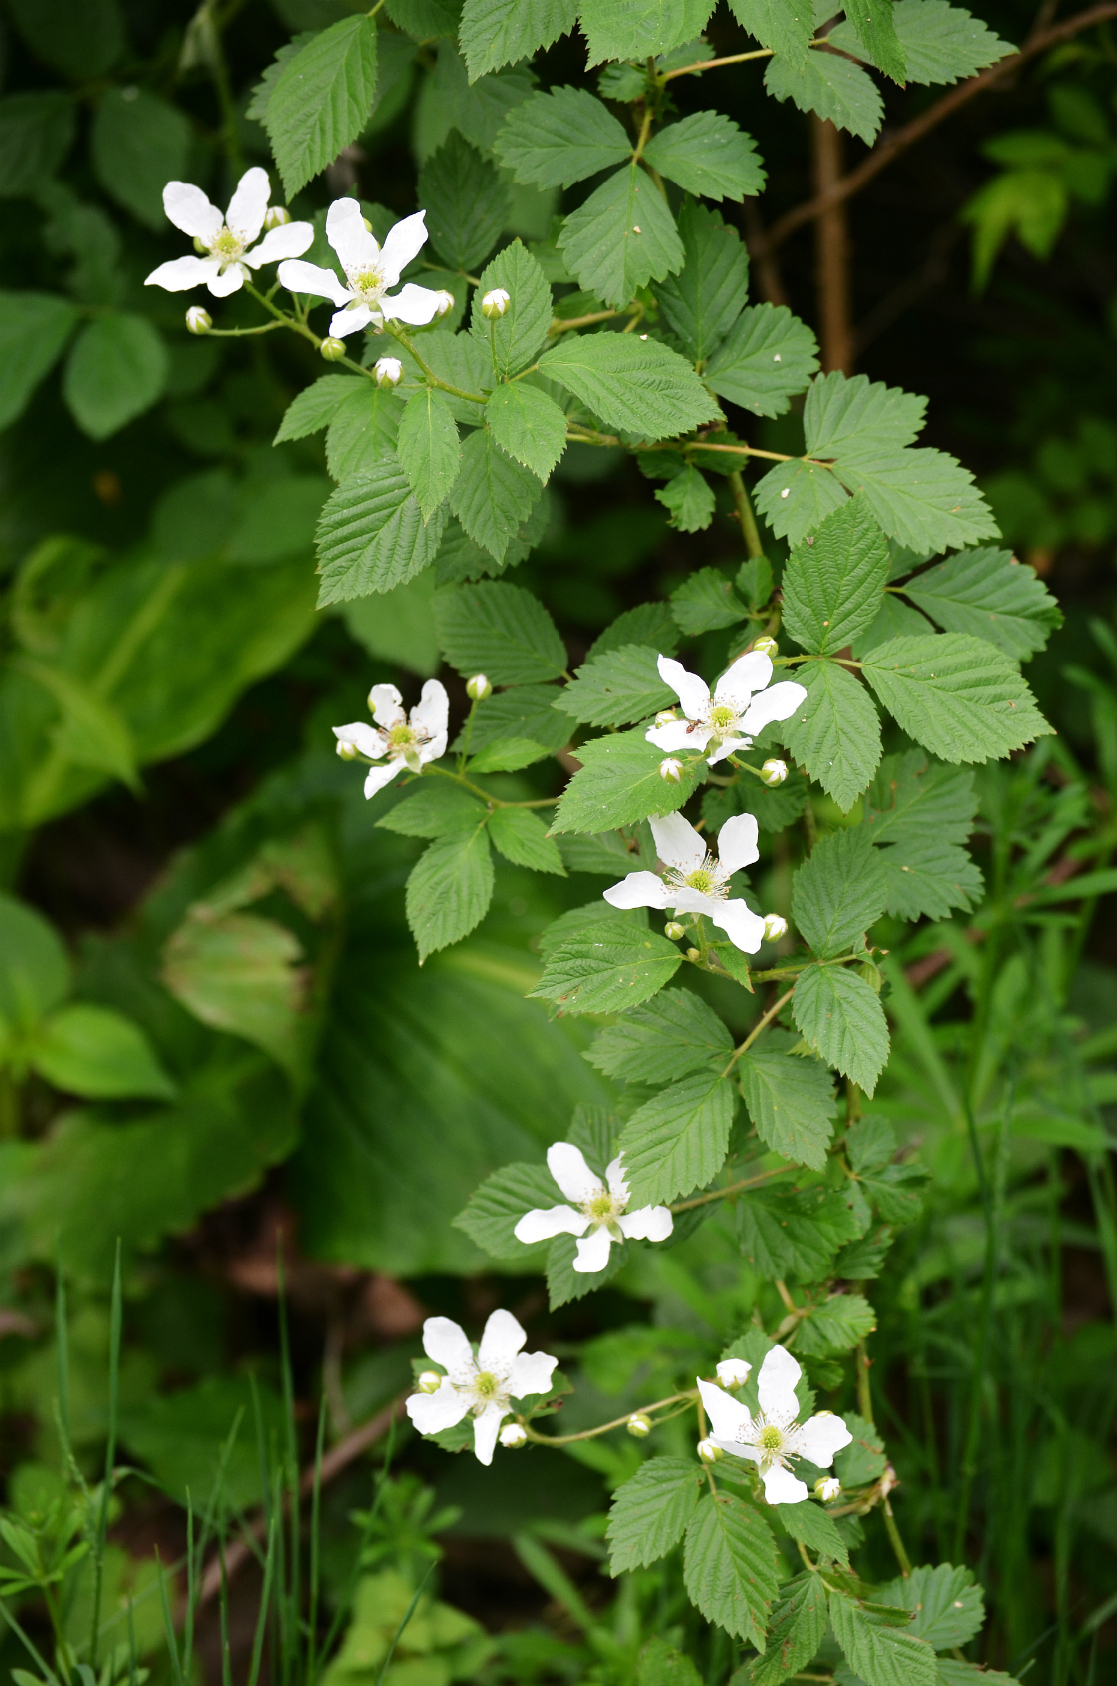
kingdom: Plantae
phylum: Tracheophyta
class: Magnoliopsida
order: Rosales
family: Rosaceae
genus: Rubus
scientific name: Rubus allegheniensis
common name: Allegheny blackberry
